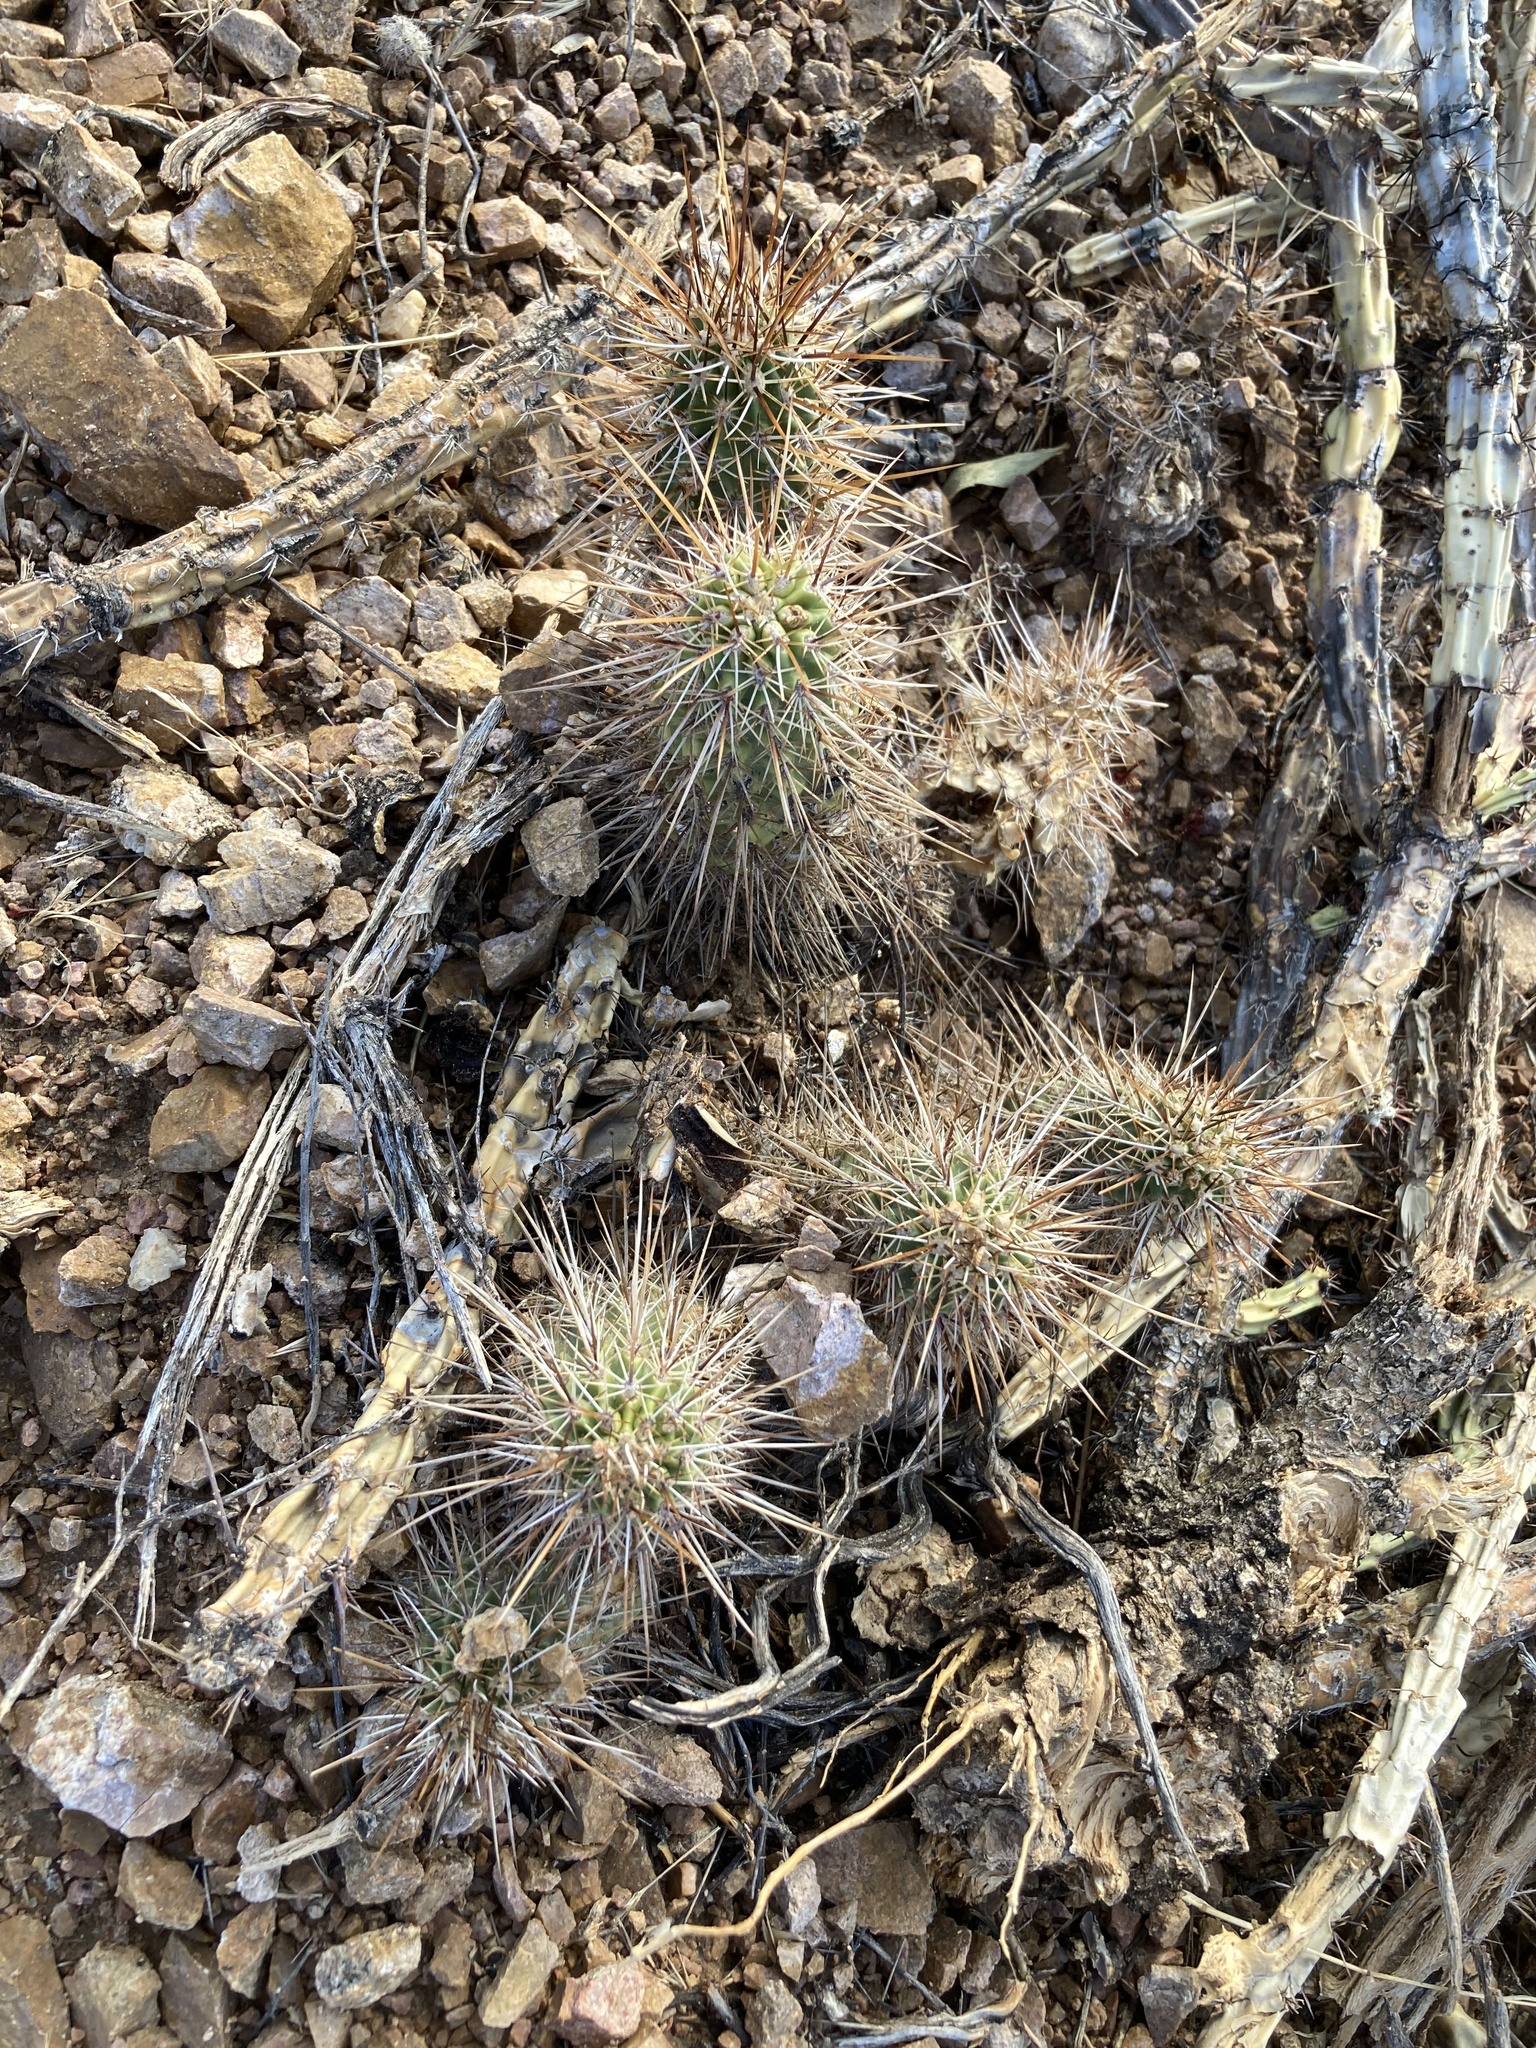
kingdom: Plantae
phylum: Tracheophyta
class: Magnoliopsida
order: Caryophyllales
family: Cactaceae
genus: Echinocereus
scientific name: Echinocereus engelmannii
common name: Engelmann's hedgehog cactus
